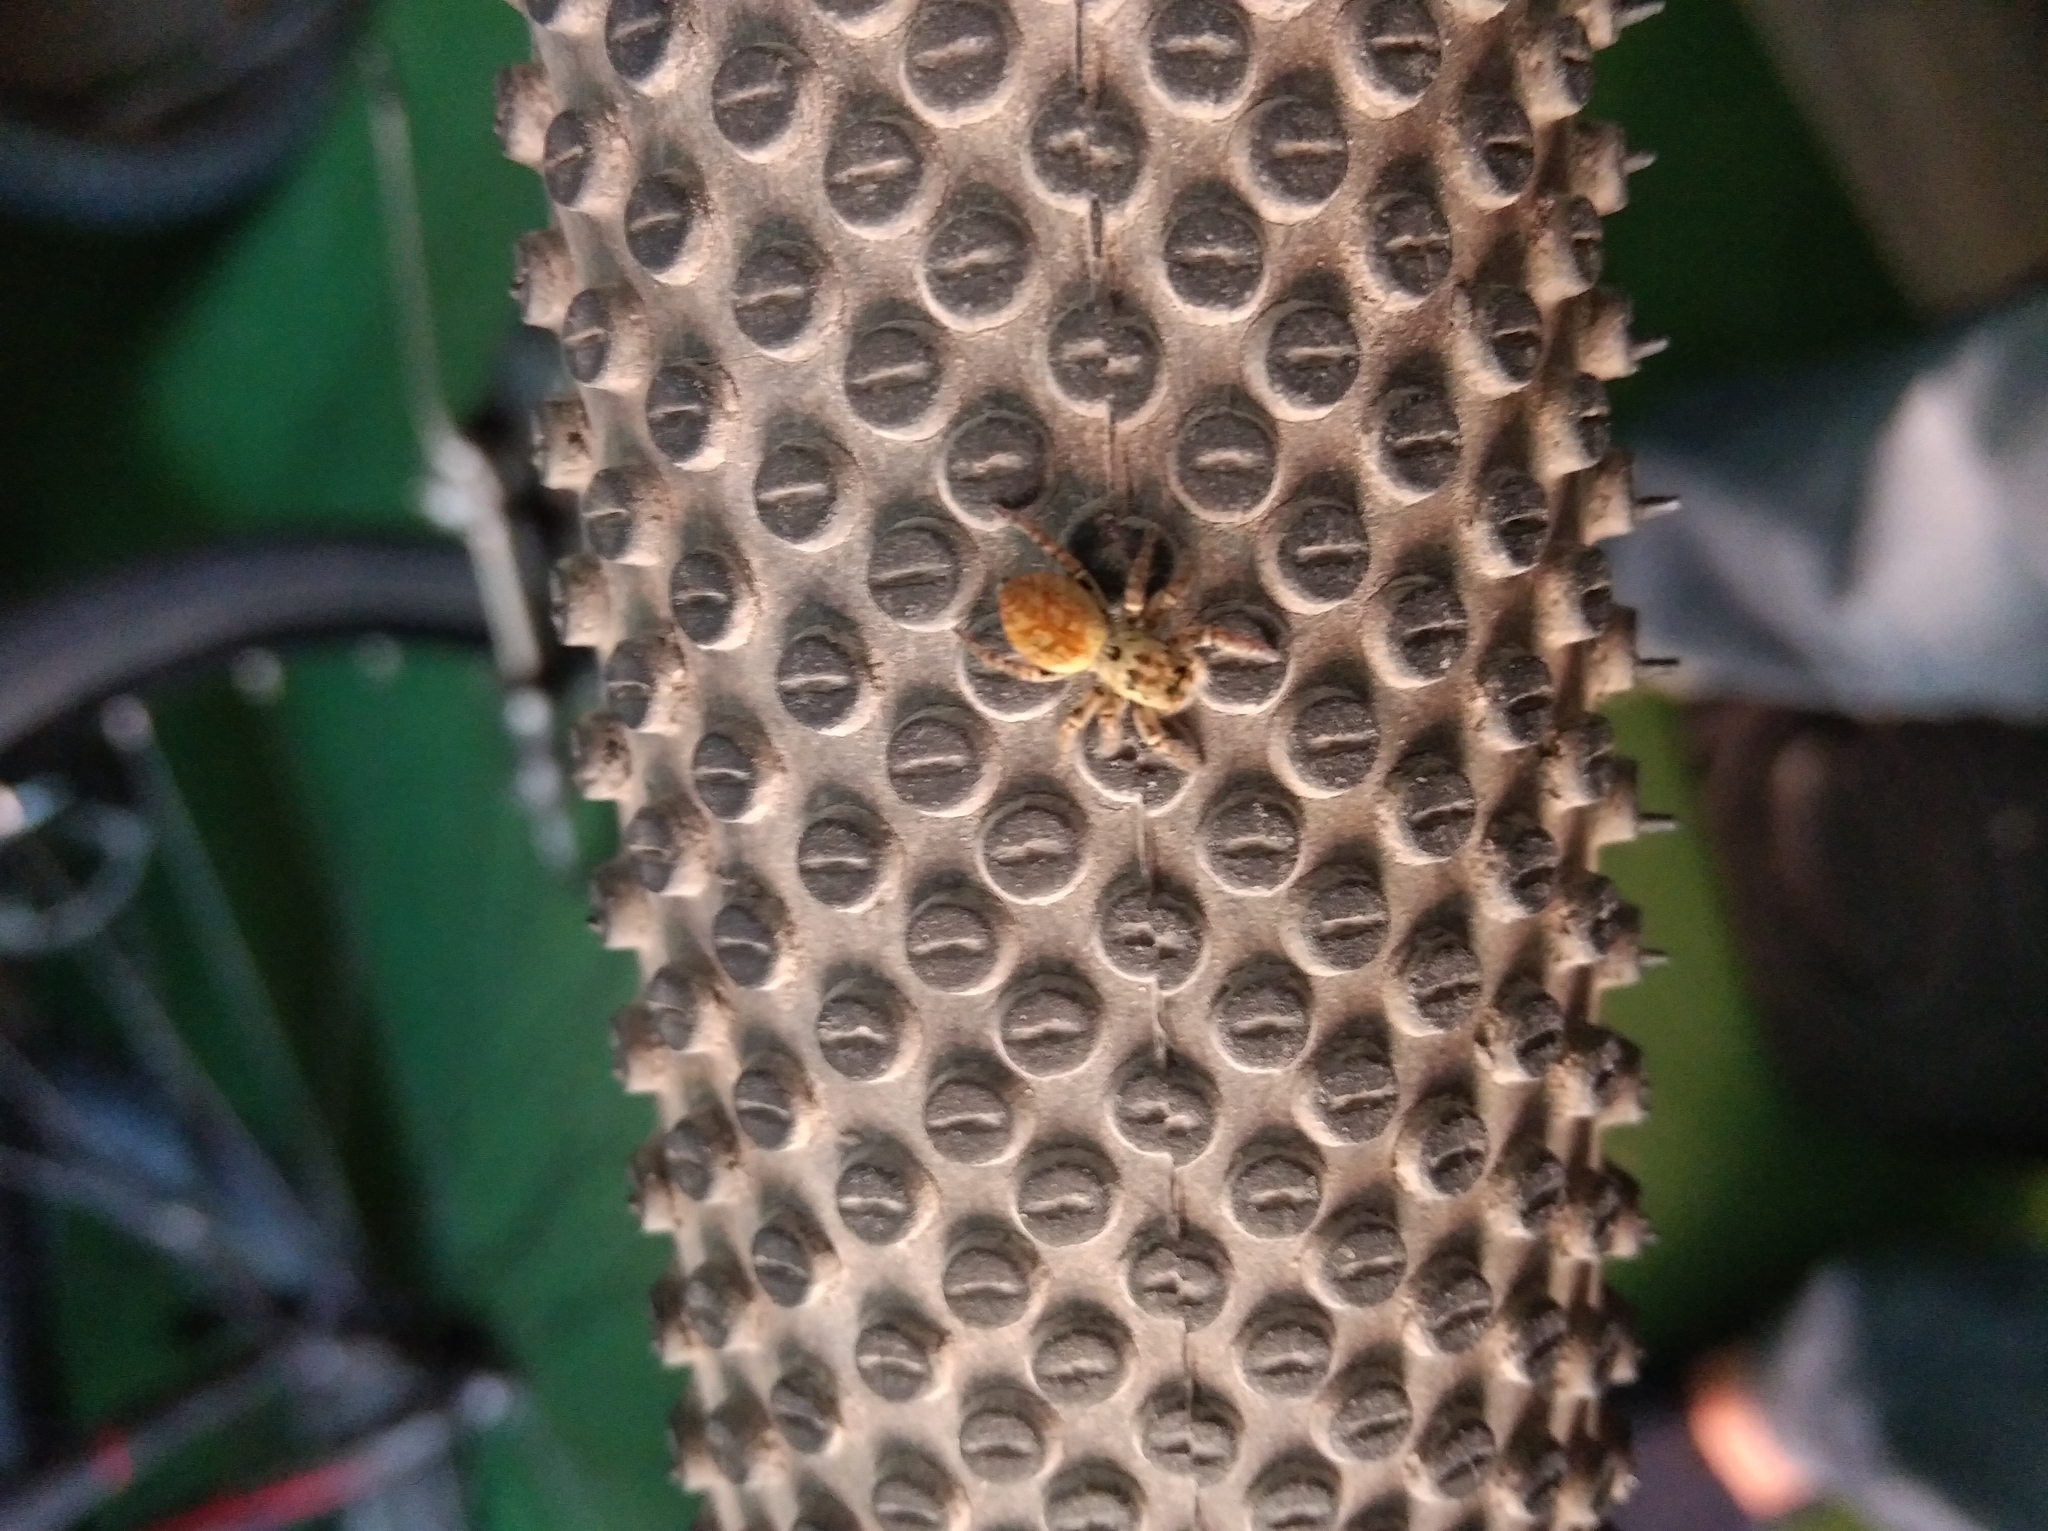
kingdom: Animalia
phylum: Arthropoda
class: Arachnida
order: Araneae
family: Salticidae
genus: Carrhotus
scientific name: Carrhotus xanthogramma
